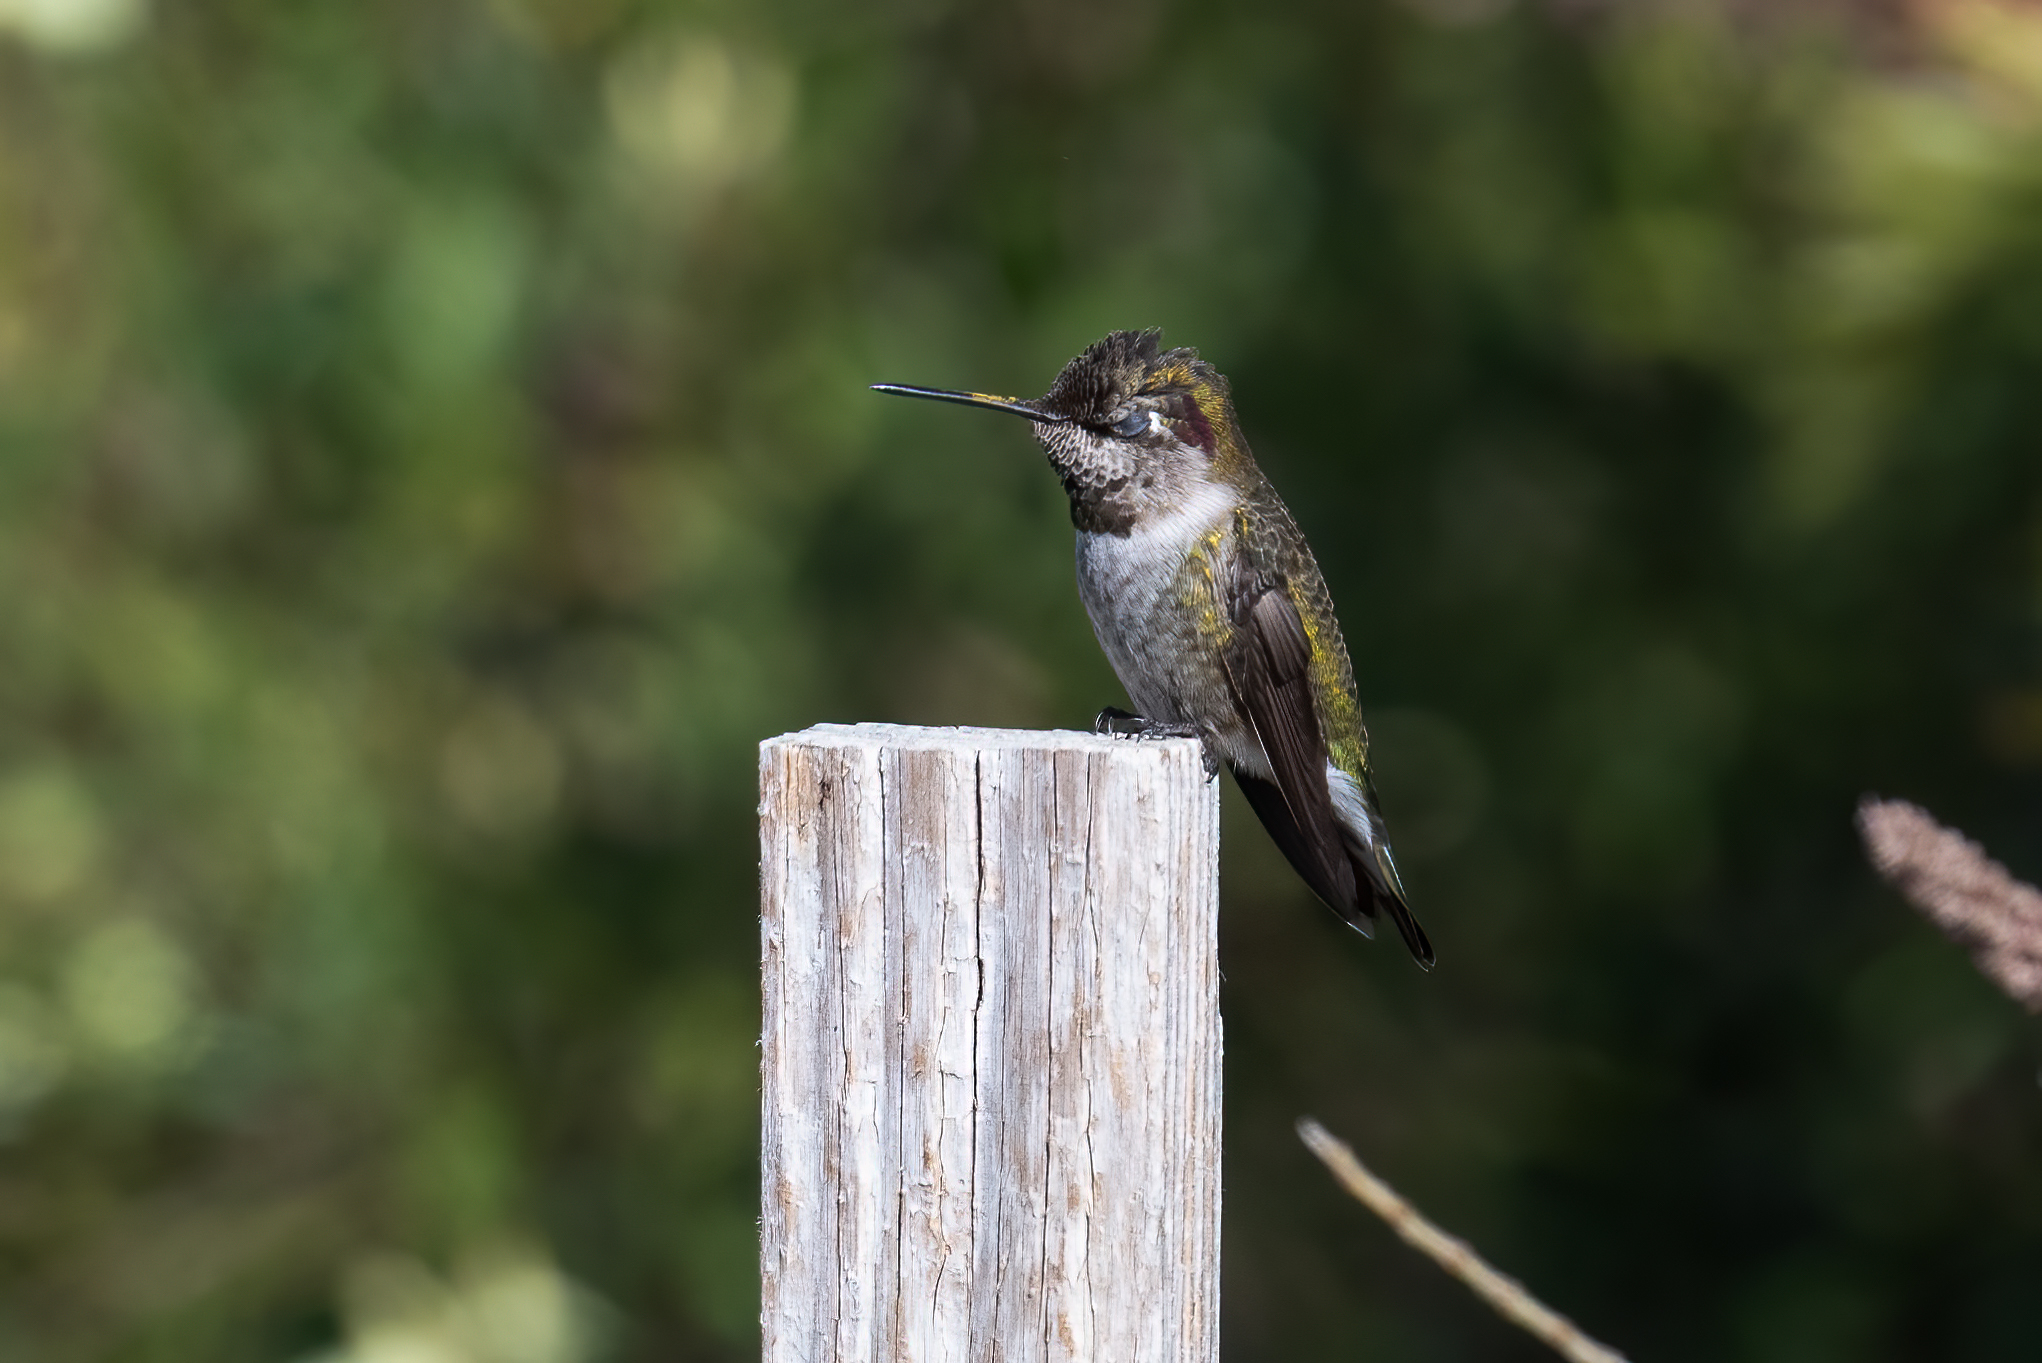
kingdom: Animalia
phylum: Chordata
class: Aves
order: Apodiformes
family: Trochilidae
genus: Calypte
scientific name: Calypte anna
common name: Anna's hummingbird
